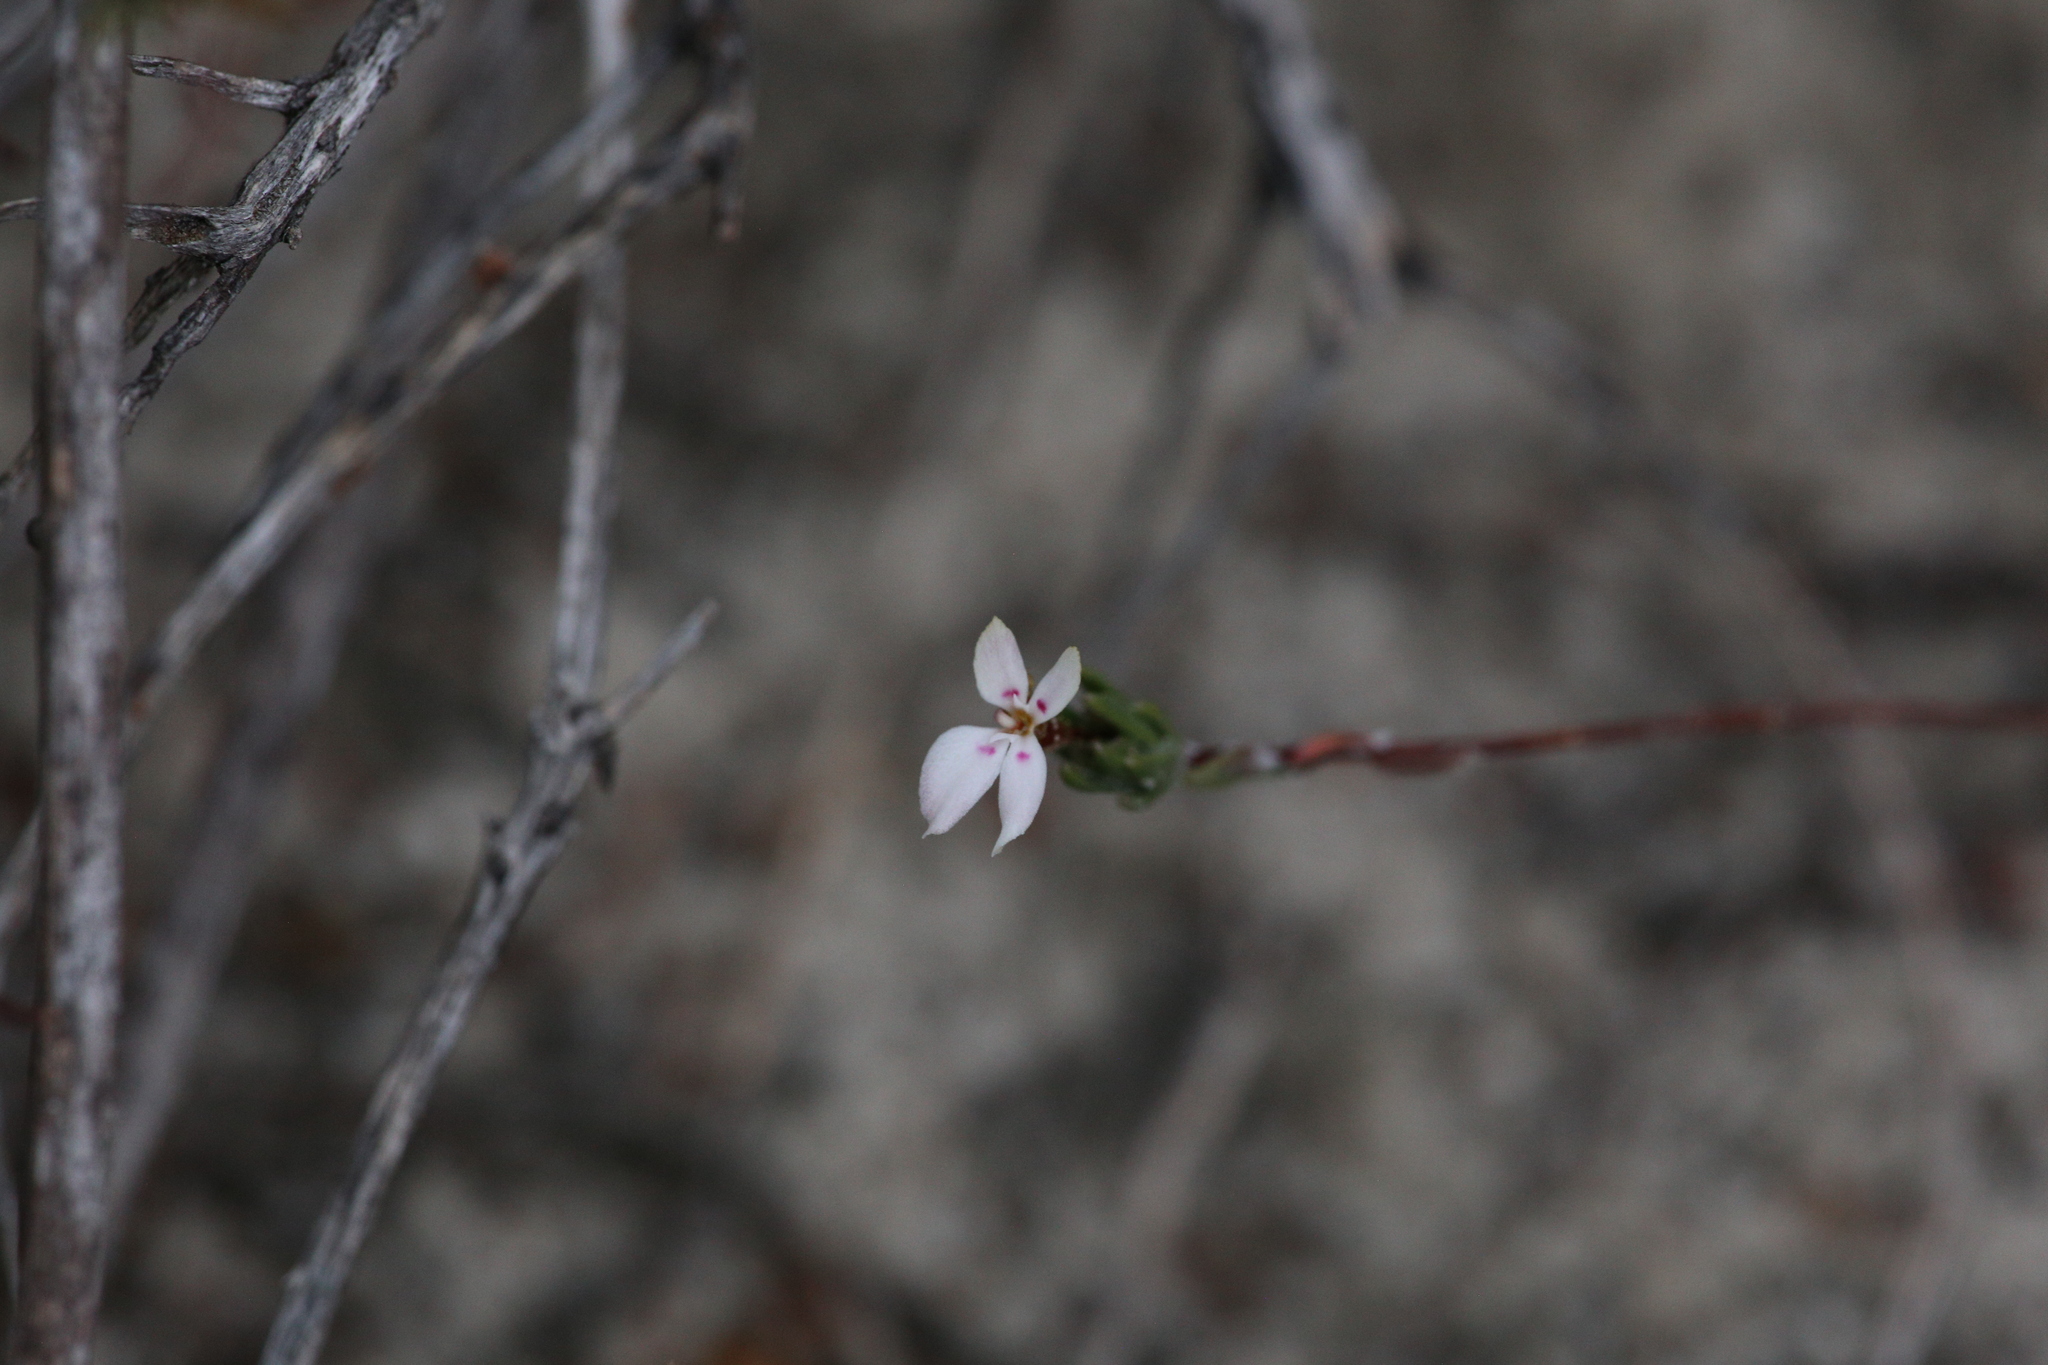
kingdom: Plantae
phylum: Tracheophyta
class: Magnoliopsida
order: Asterales
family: Stylidiaceae
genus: Stylidium
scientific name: Stylidium repens
